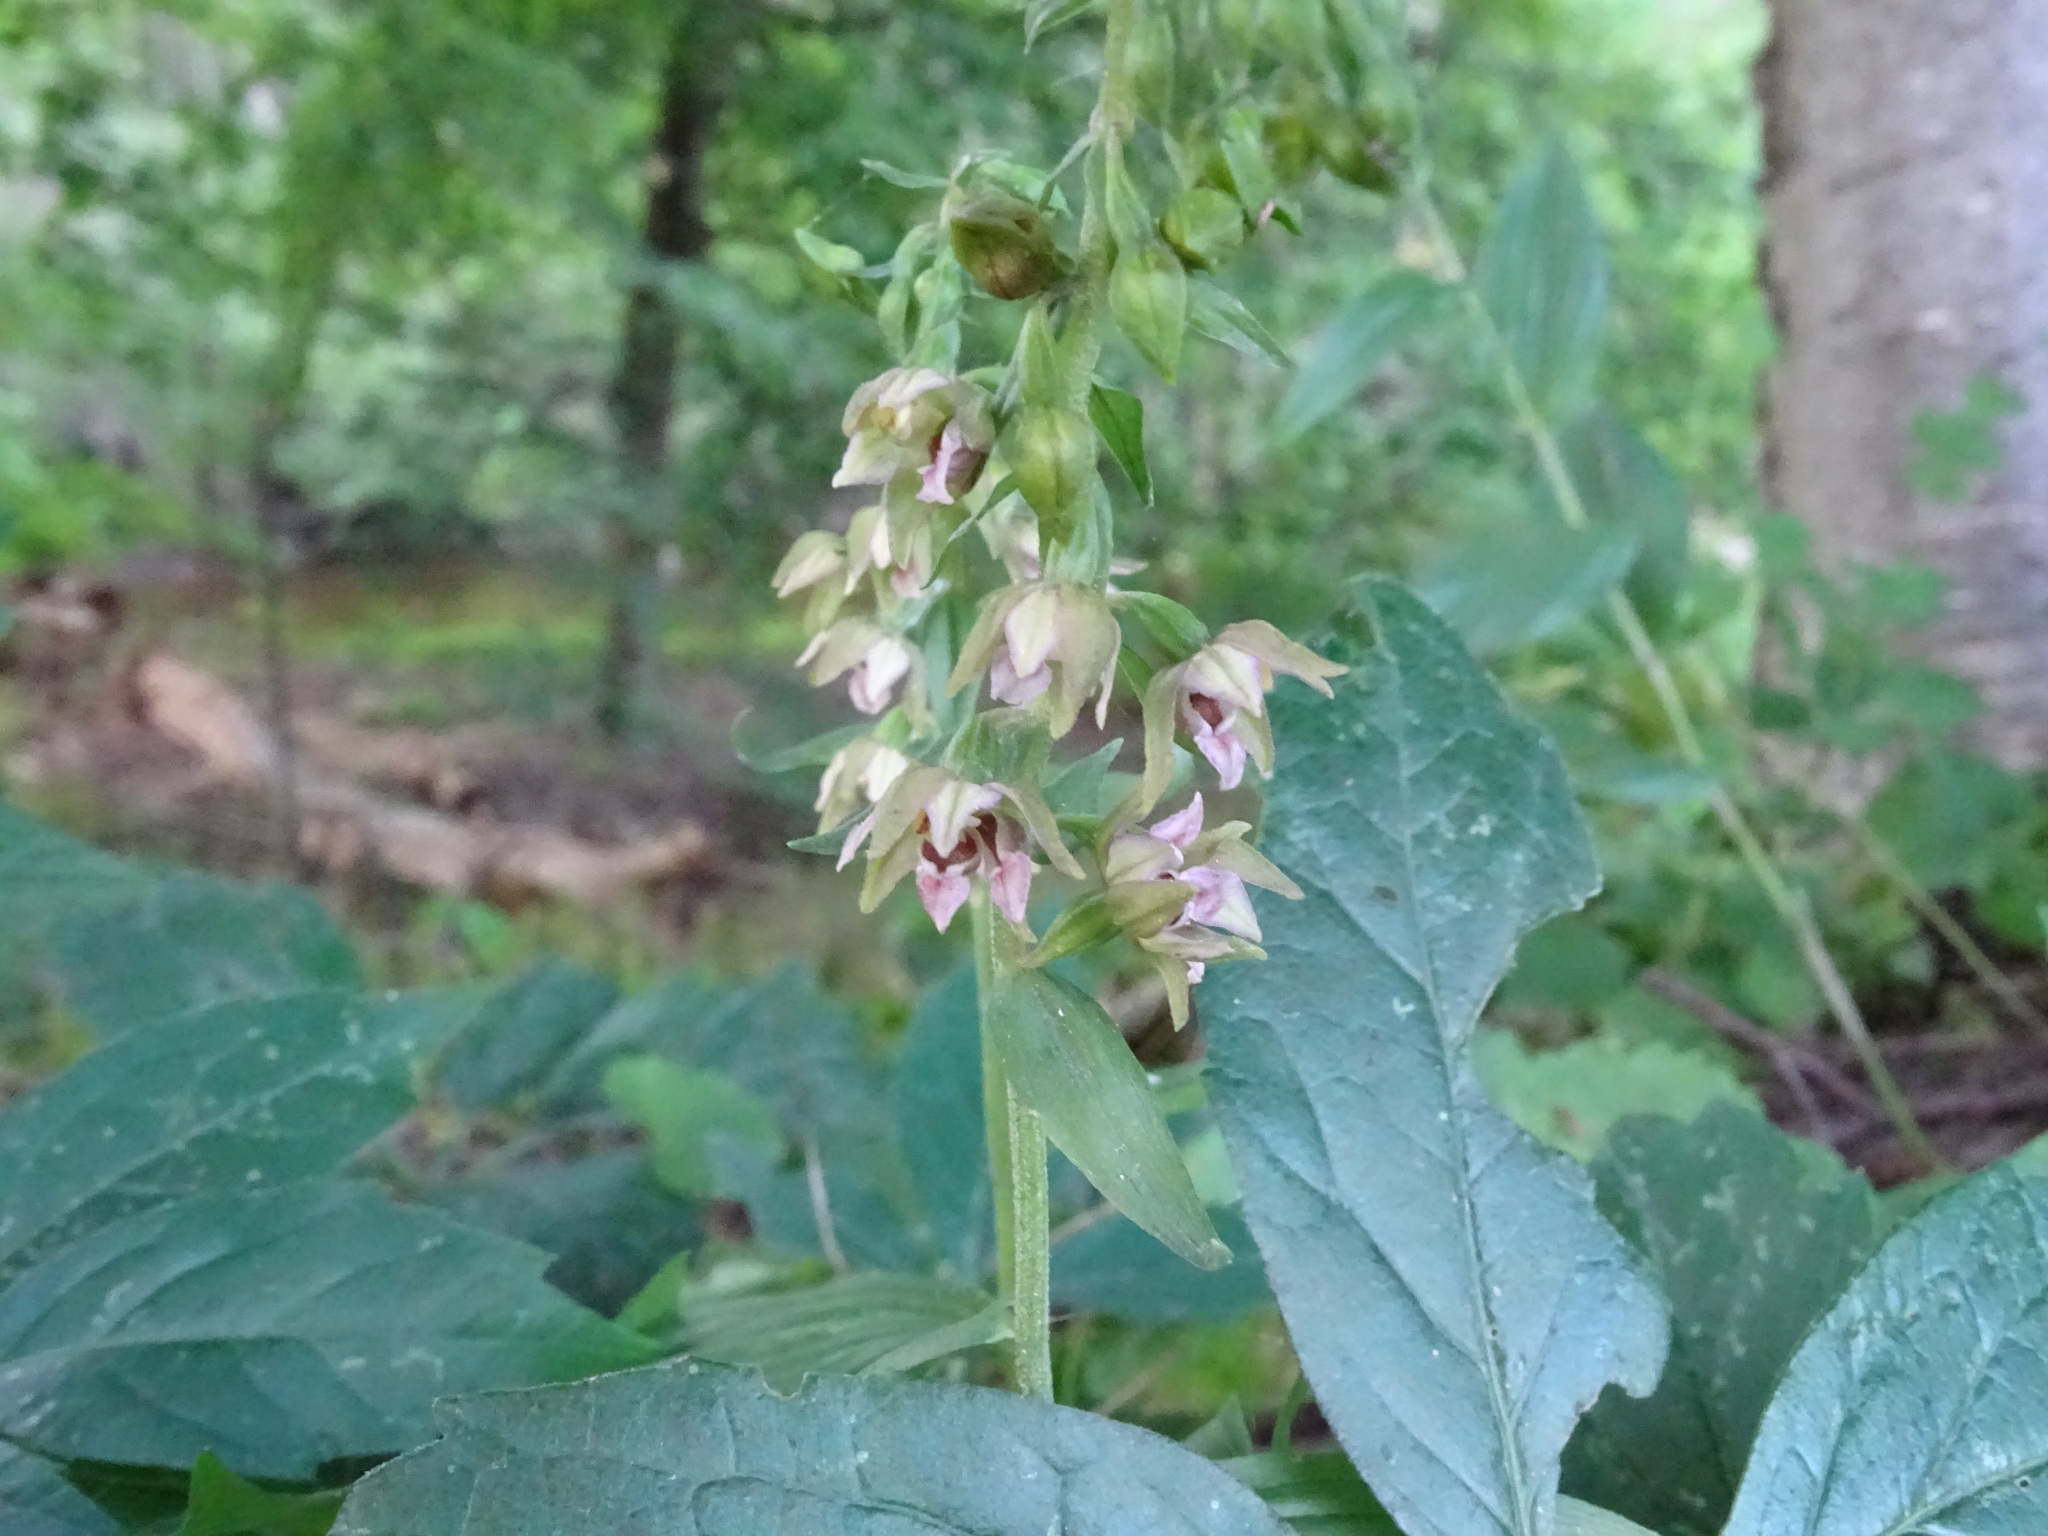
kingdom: Plantae
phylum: Tracheophyta
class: Liliopsida
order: Asparagales
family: Orchidaceae
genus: Epipactis
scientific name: Epipactis helleborine
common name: Broad-leaved helleborine
